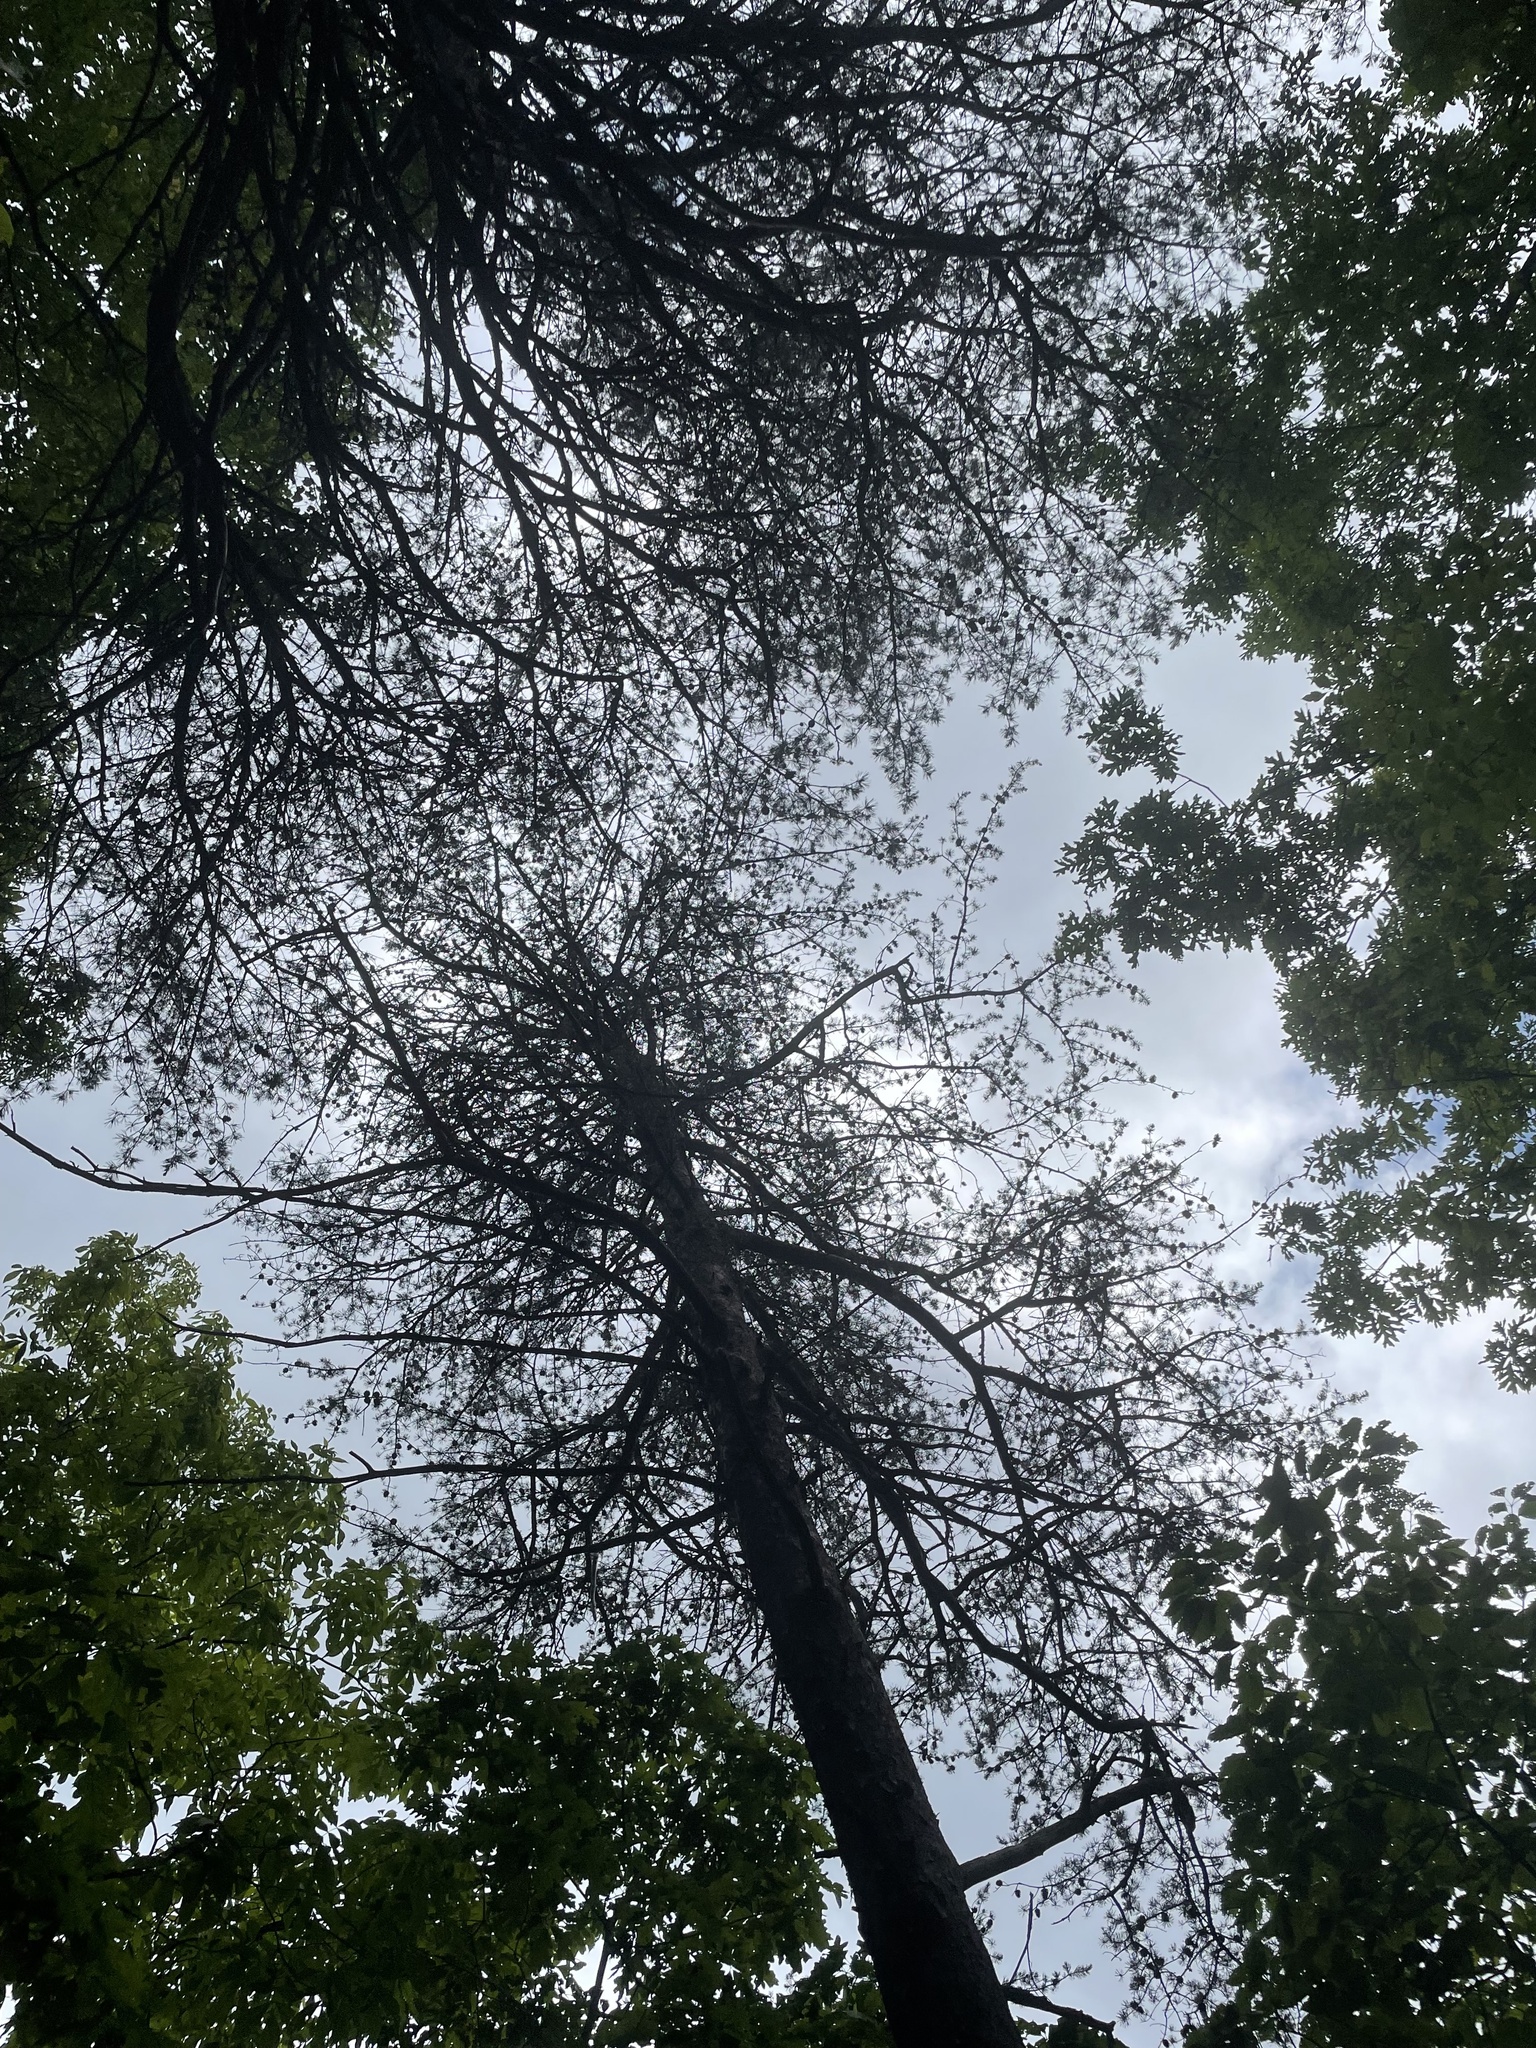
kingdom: Plantae
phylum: Tracheophyta
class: Pinopsida
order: Pinales
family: Pinaceae
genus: Pinus
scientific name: Pinus virginiana
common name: Scrub pine
